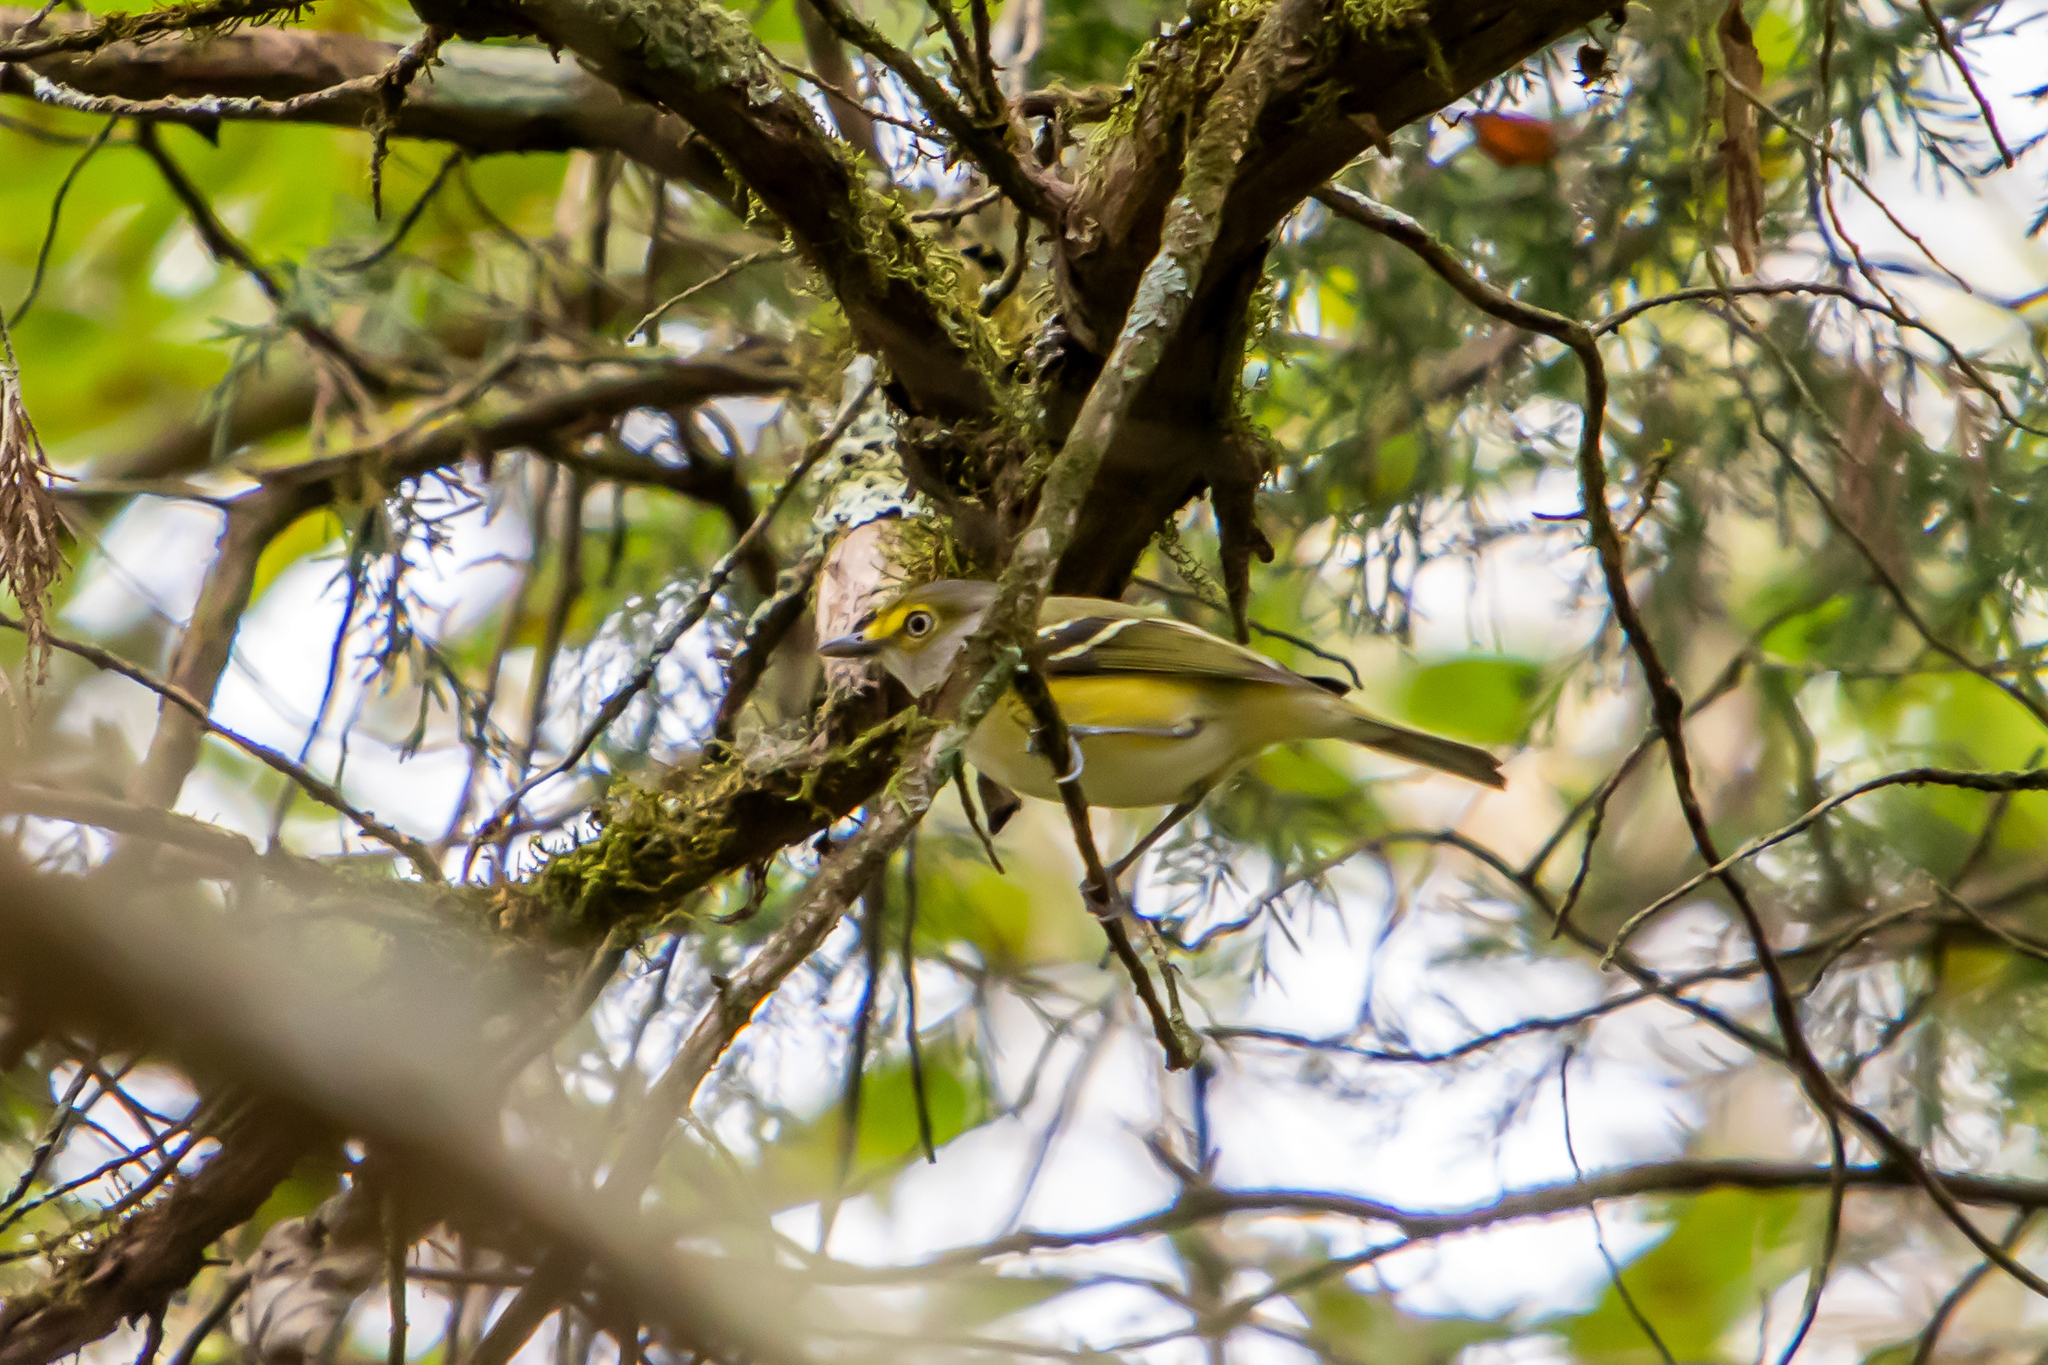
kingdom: Animalia
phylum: Chordata
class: Aves
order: Passeriformes
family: Vireonidae
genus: Vireo
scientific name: Vireo griseus
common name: White-eyed vireo
